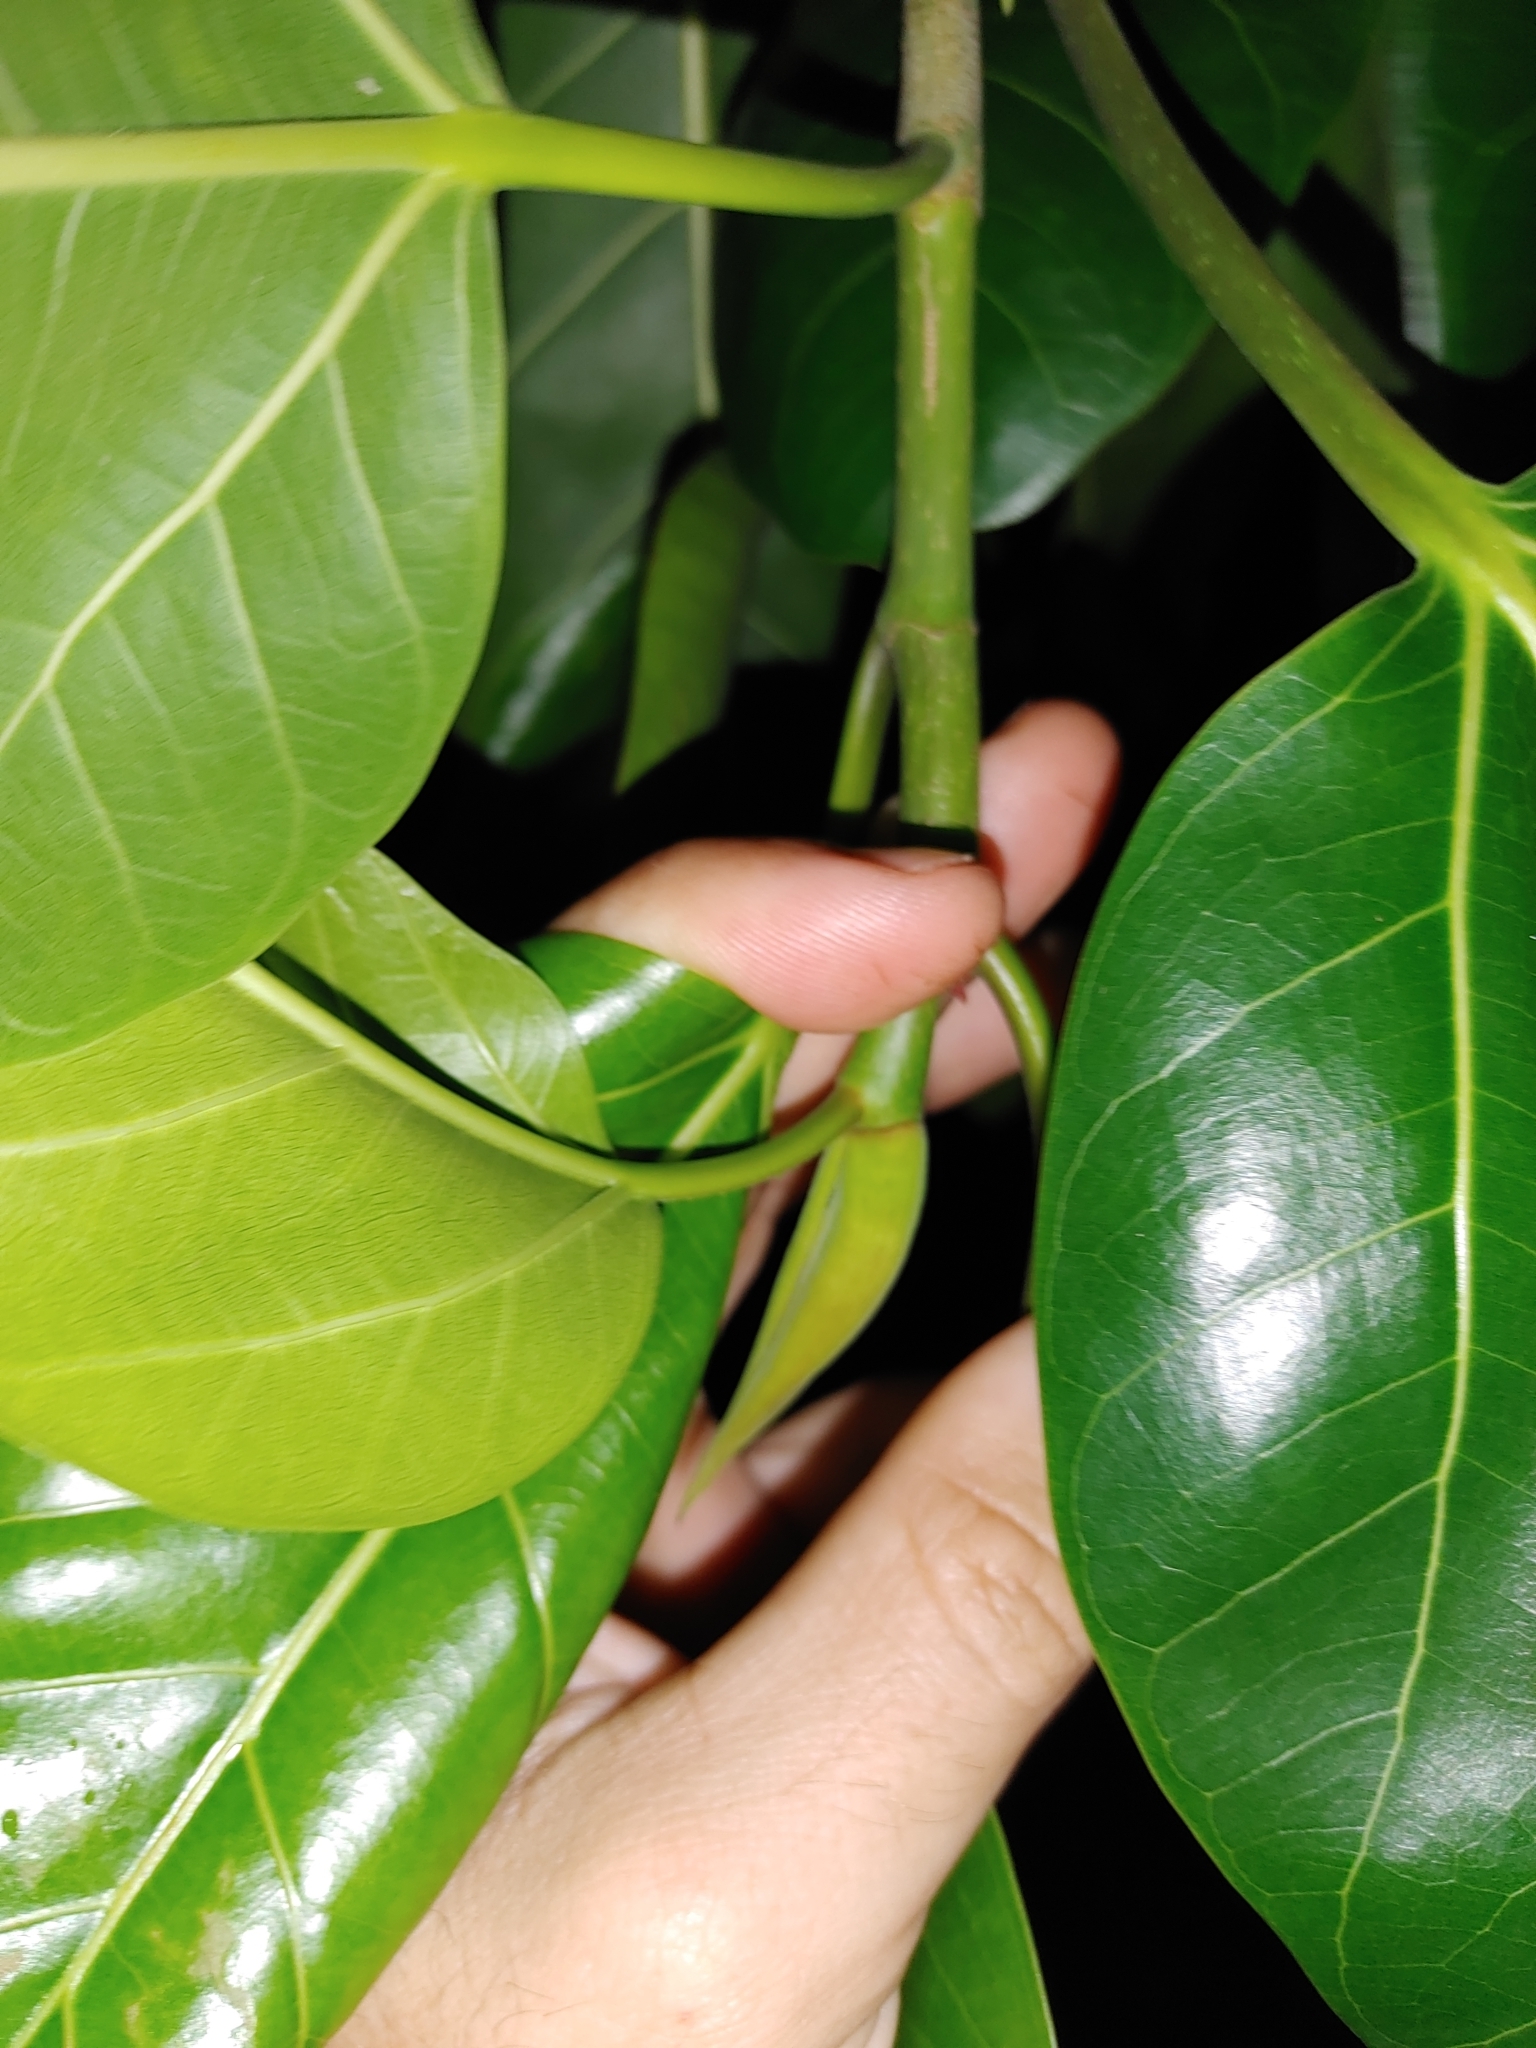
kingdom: Plantae
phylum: Tracheophyta
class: Magnoliopsida
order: Rosales
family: Moraceae
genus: Ficus
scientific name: Ficus benghalensis
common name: Indian banyan
